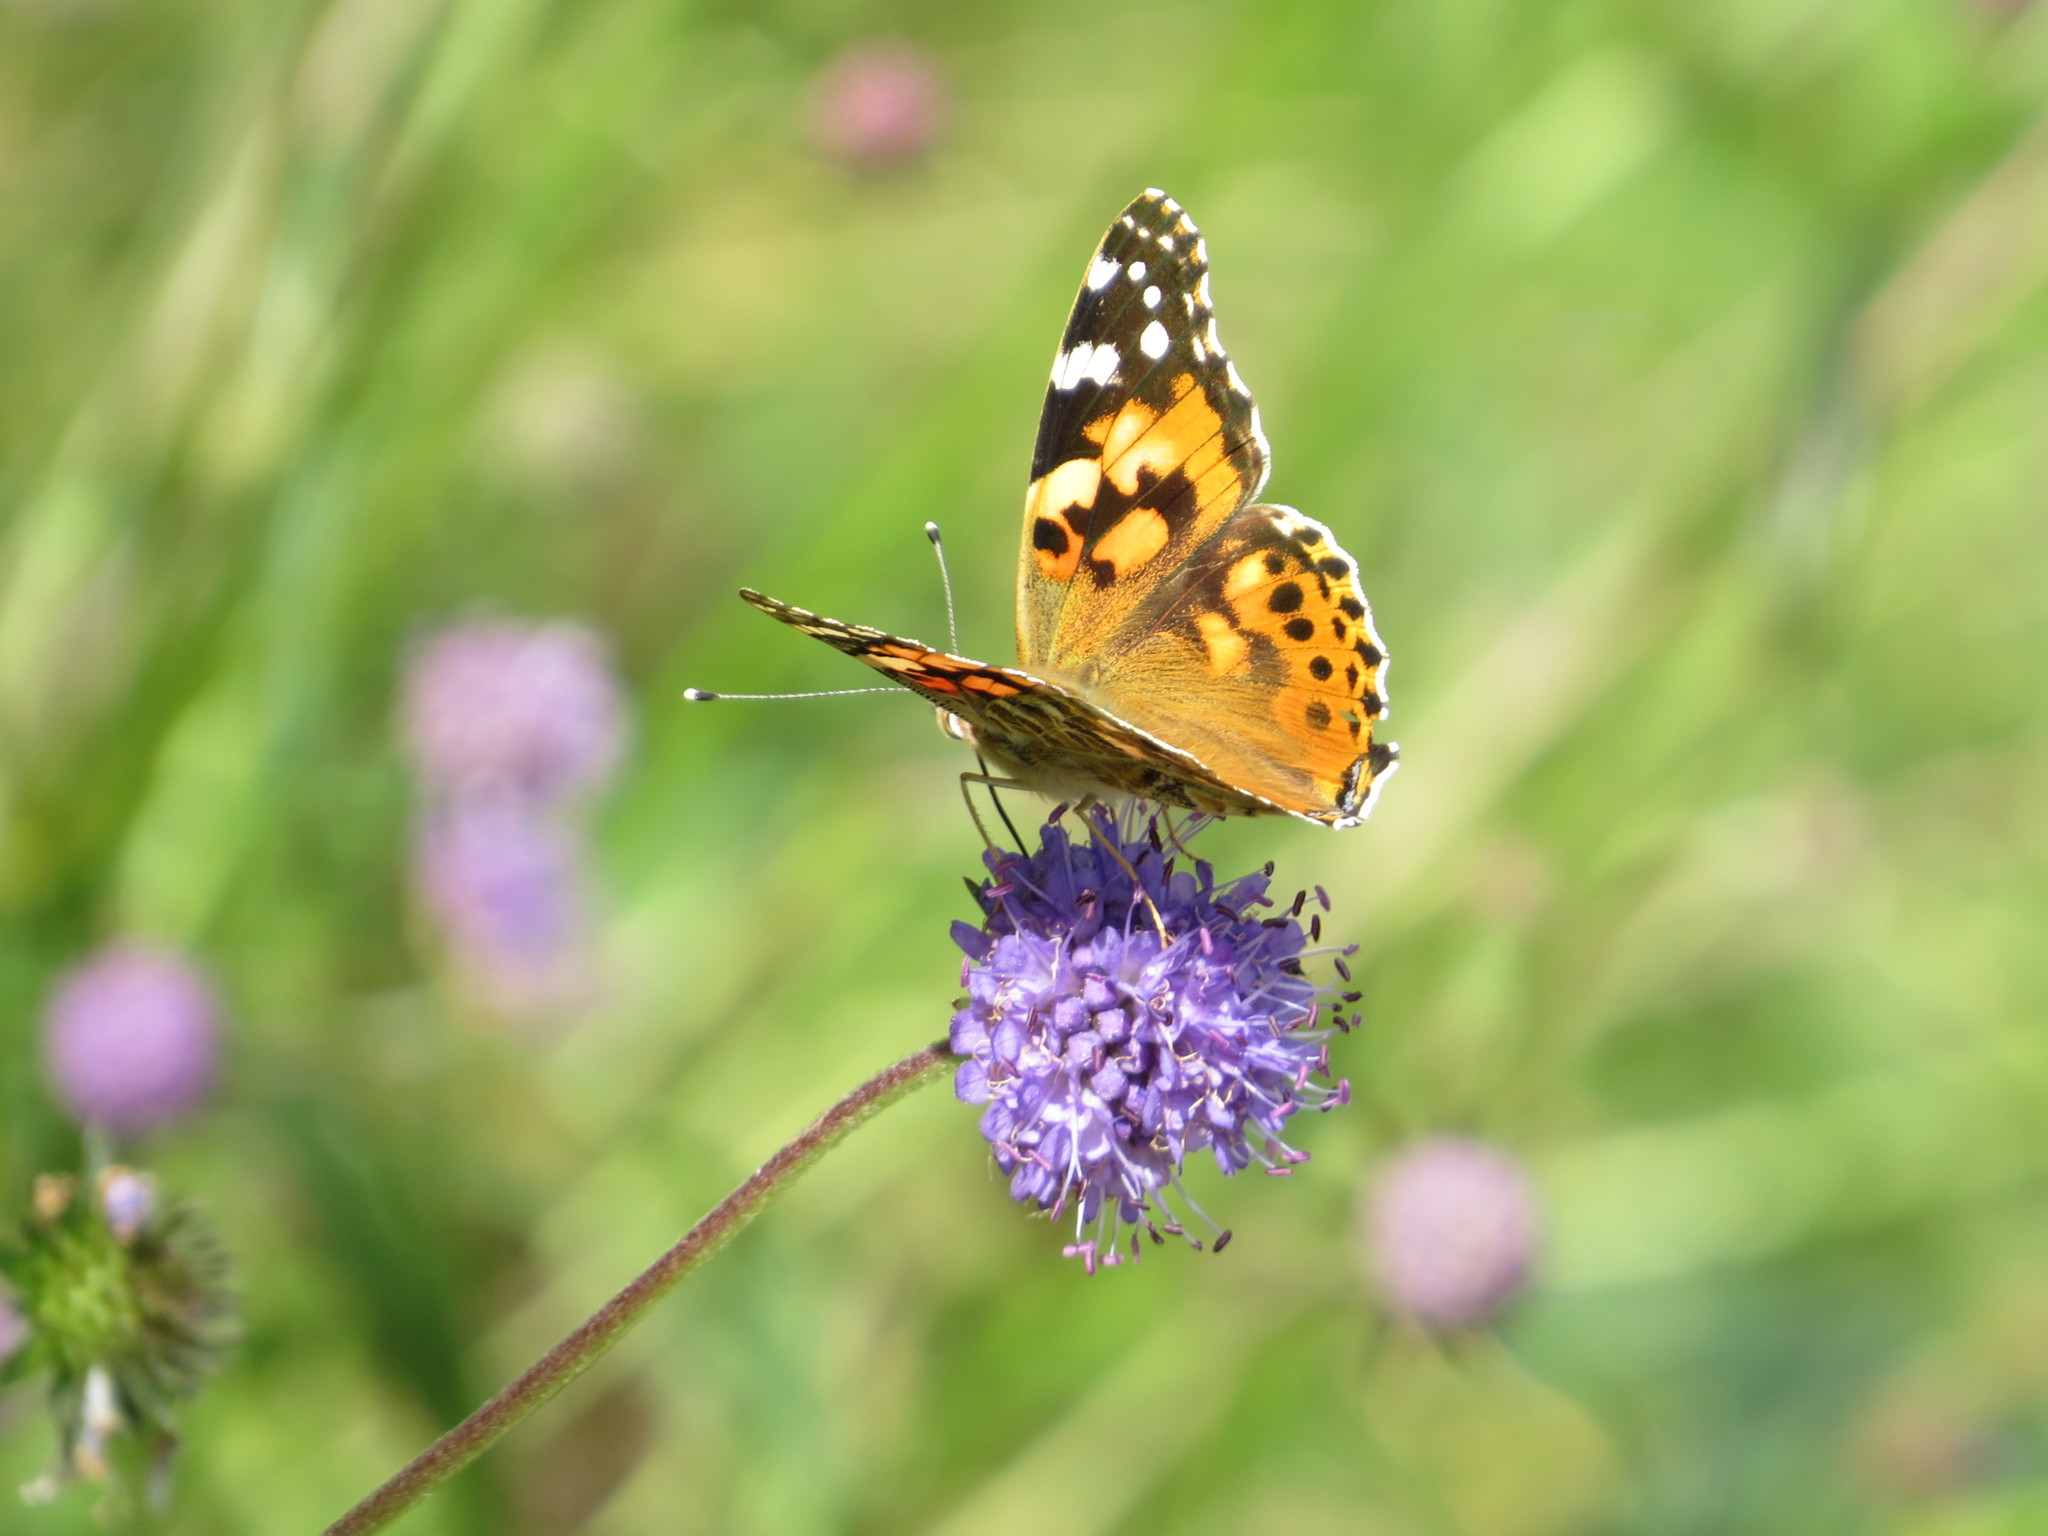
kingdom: Animalia
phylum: Arthropoda
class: Insecta
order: Lepidoptera
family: Nymphalidae
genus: Vanessa
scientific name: Vanessa cardui
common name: Painted lady
